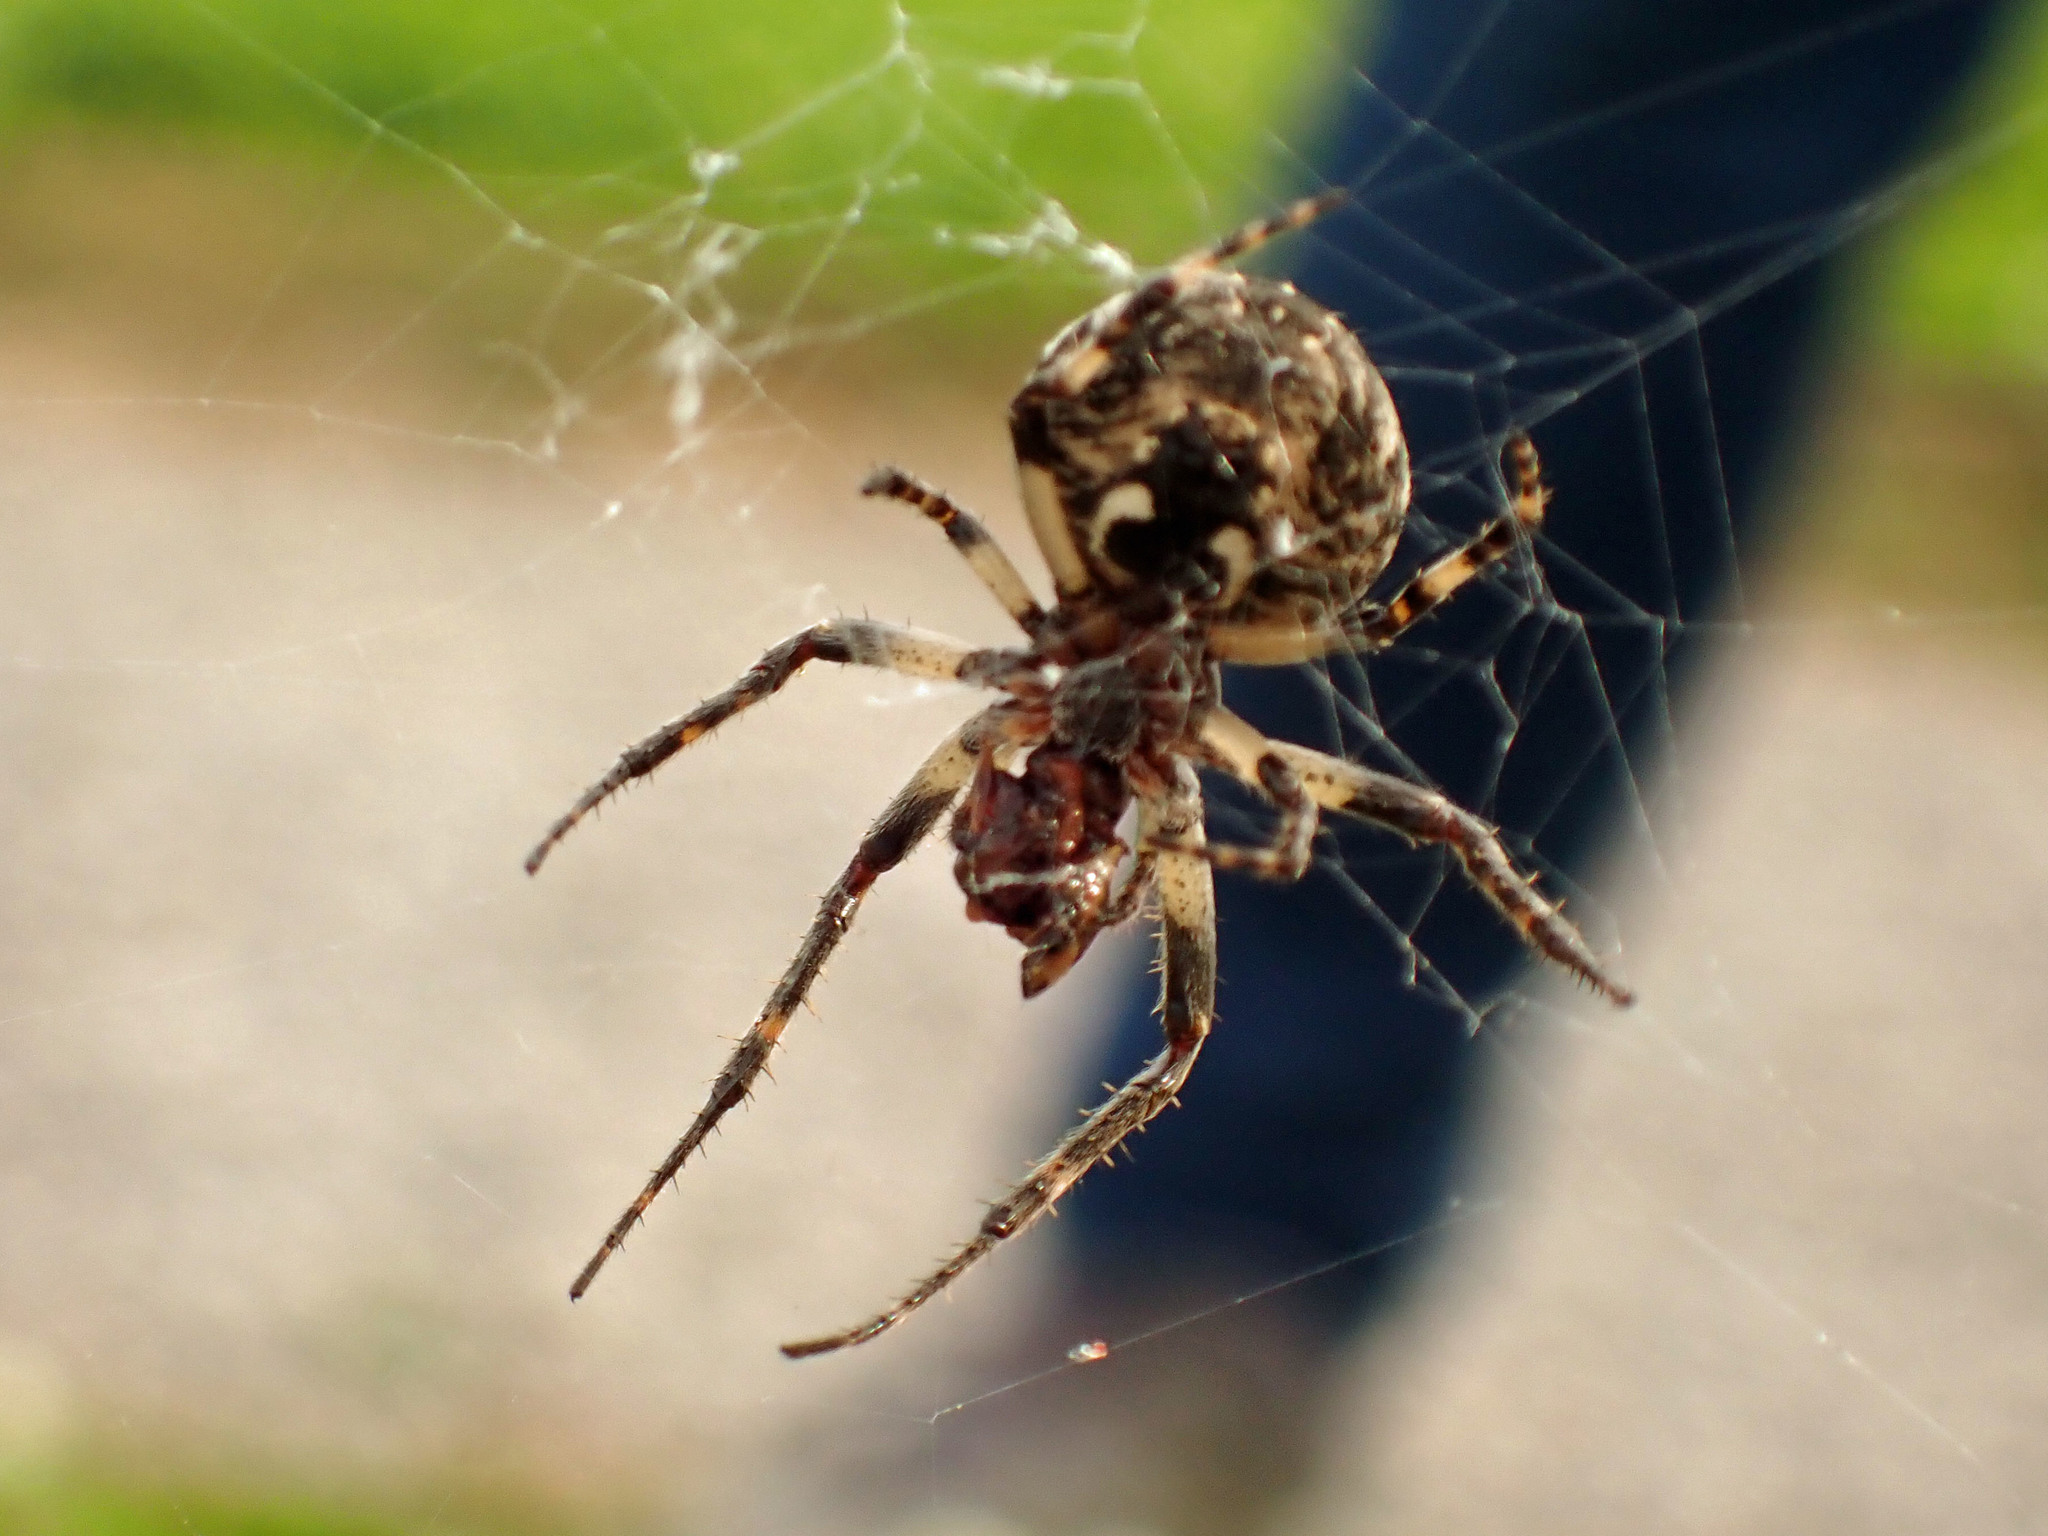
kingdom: Animalia
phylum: Arthropoda
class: Arachnida
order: Araneae
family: Araneidae
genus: Larinioides
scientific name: Larinioides sclopetarius
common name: Bridge orbweaver
